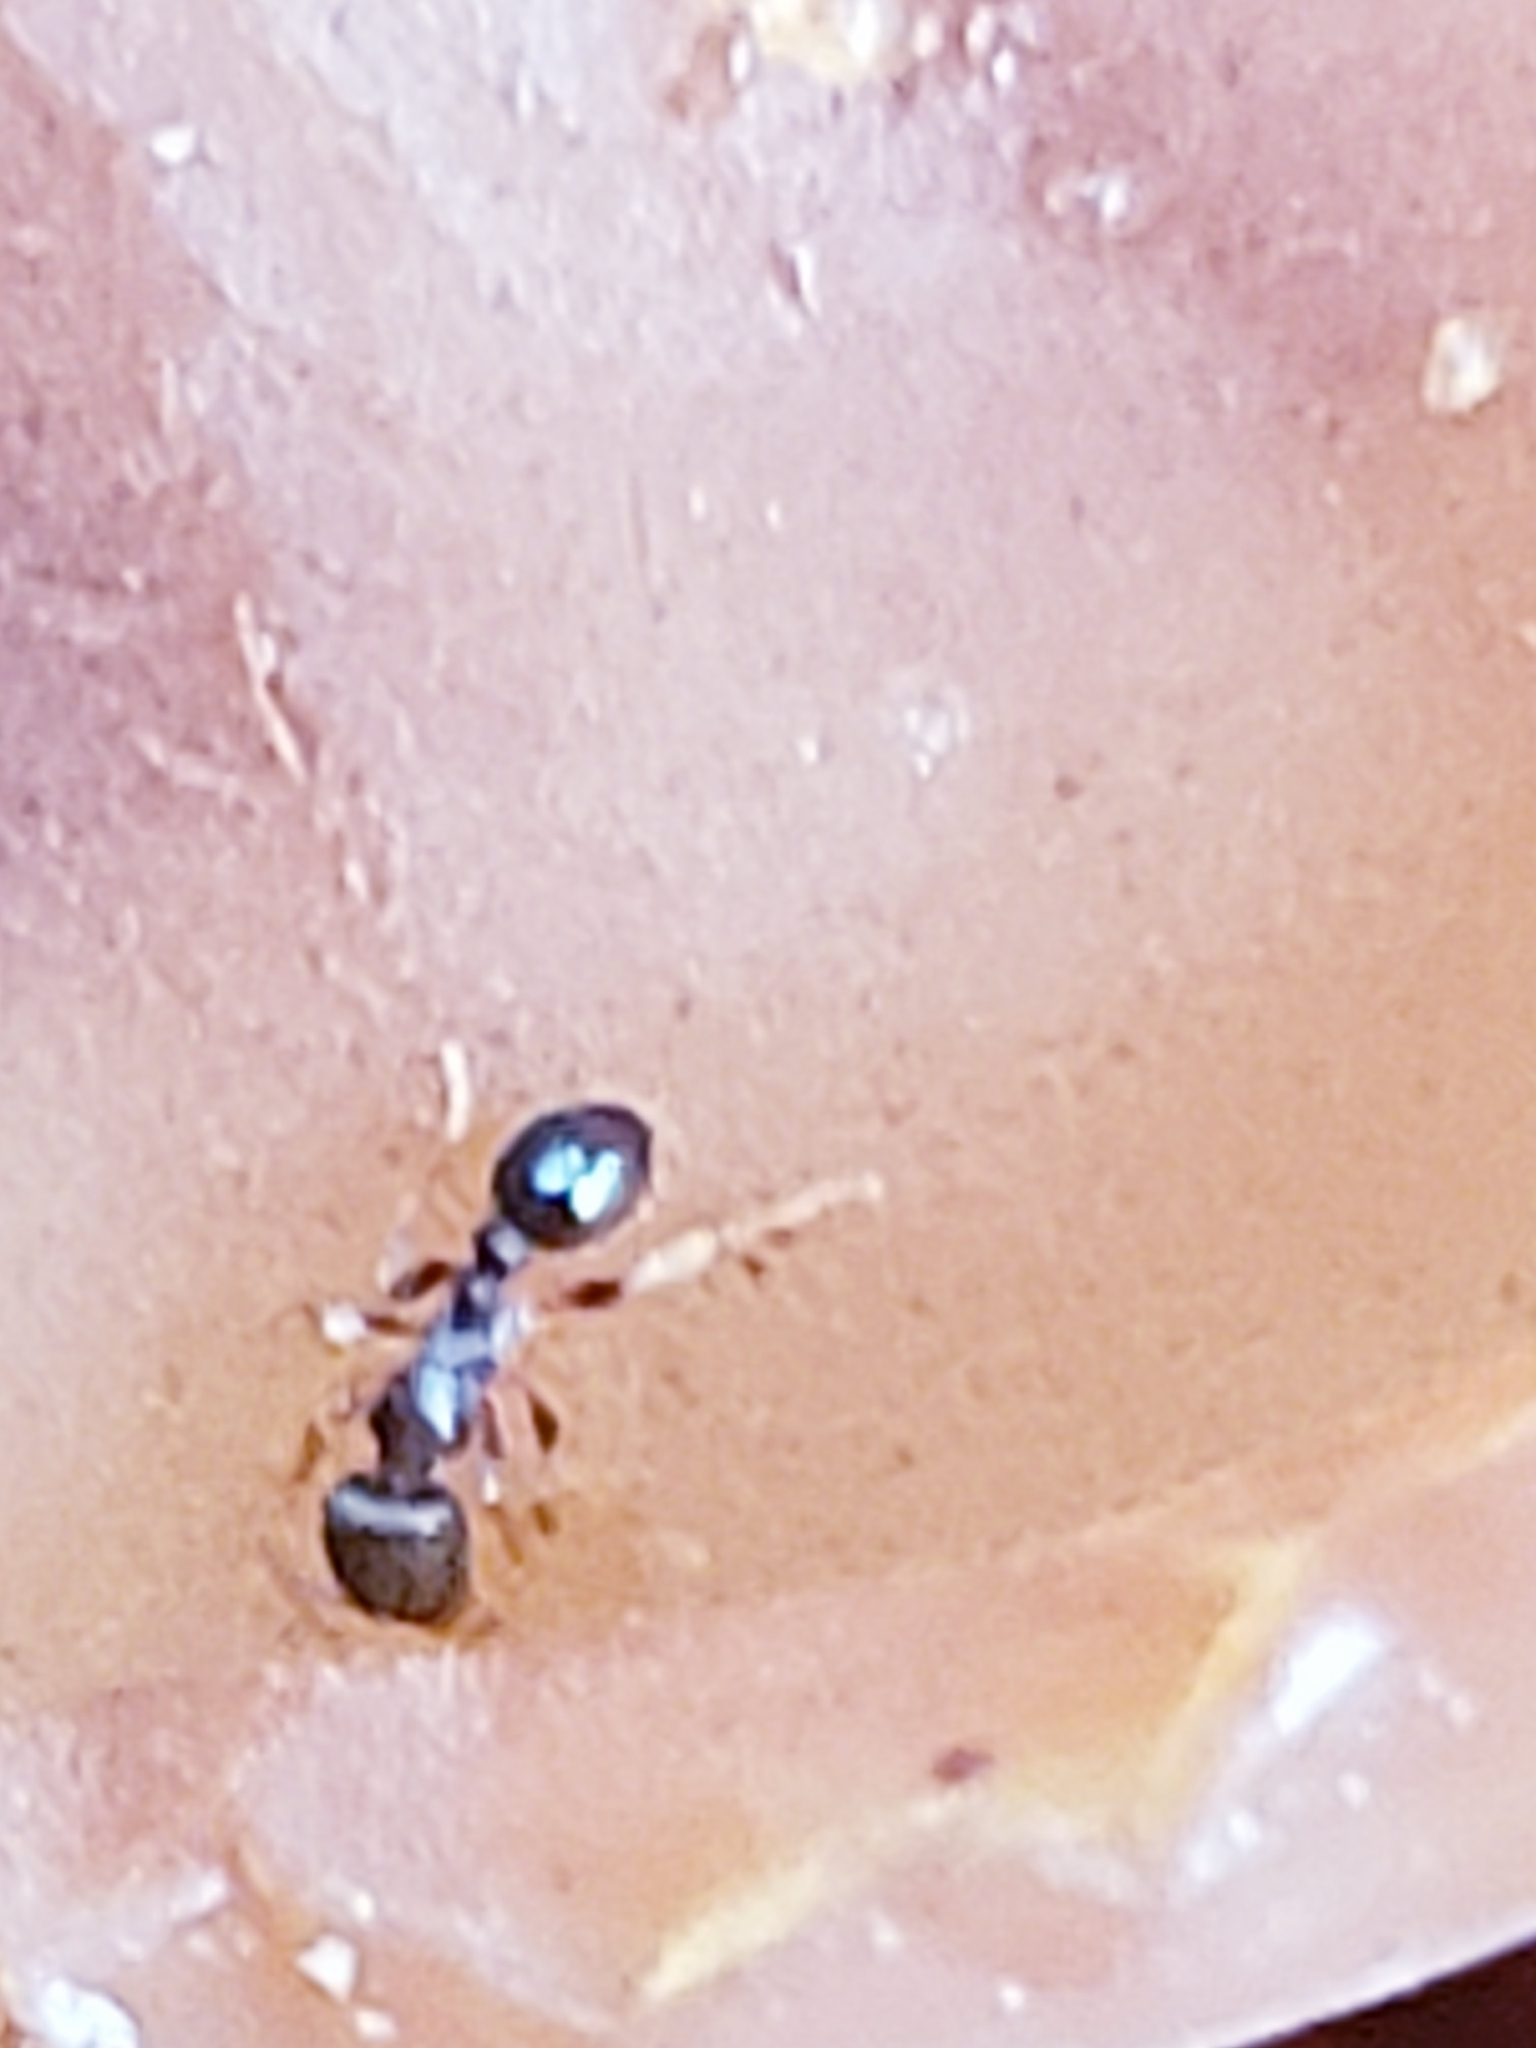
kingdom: Animalia
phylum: Arthropoda
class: Insecta
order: Hymenoptera
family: Formicidae
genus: Tetramorium
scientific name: Tetramorium immigrans
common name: Pavement ant
